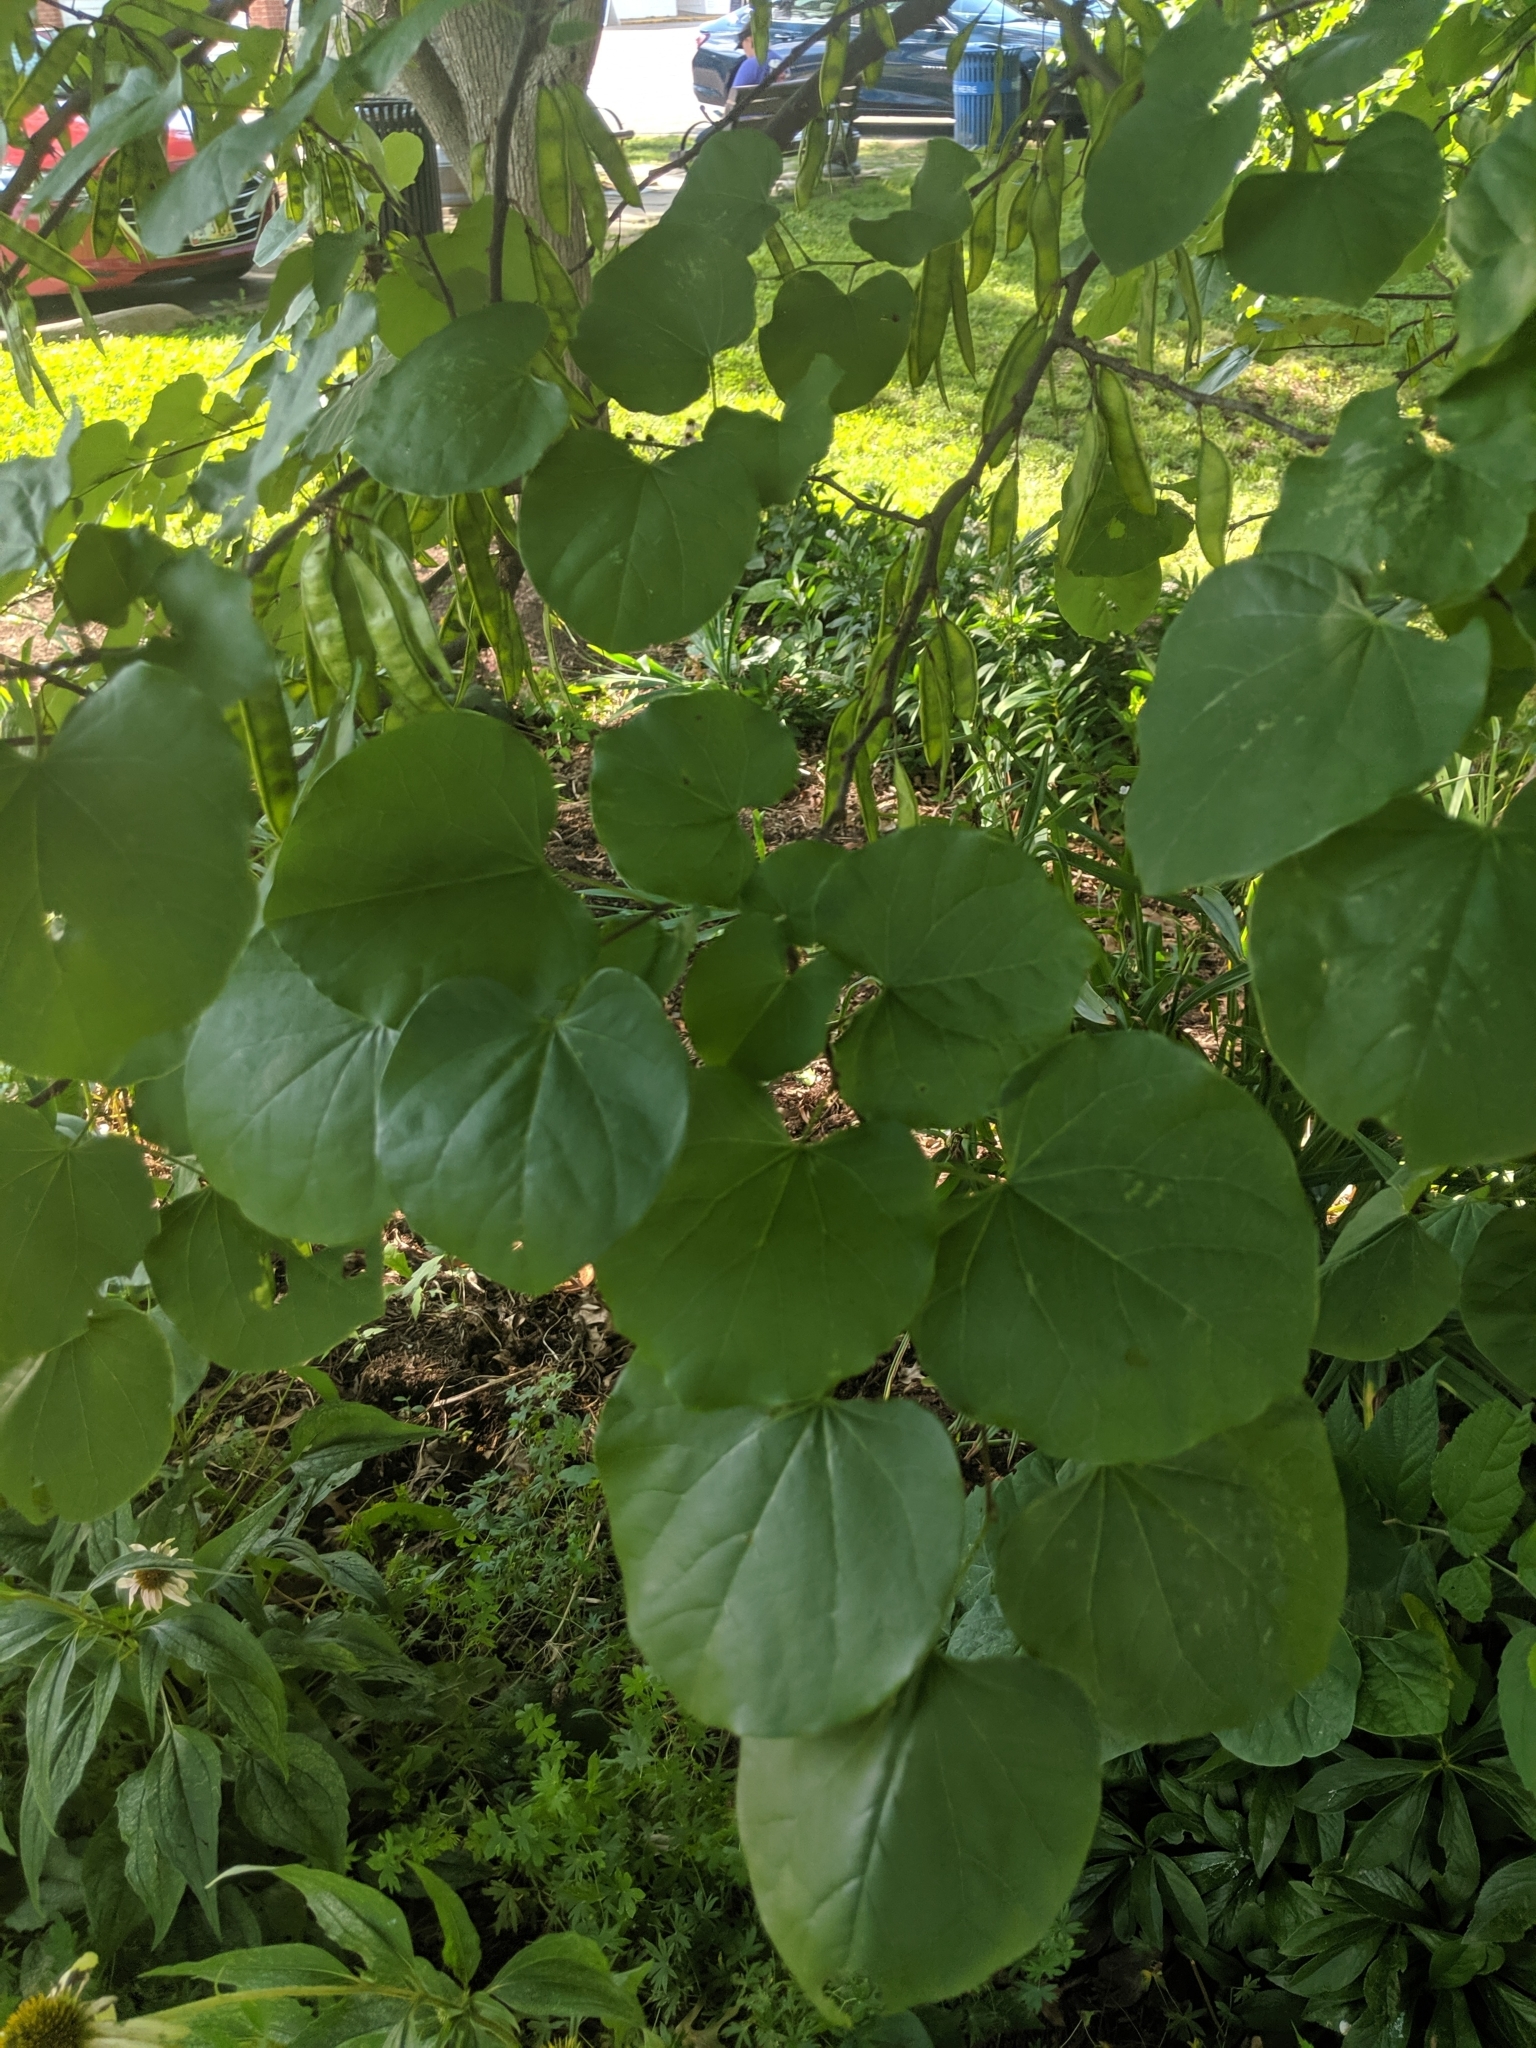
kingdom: Plantae
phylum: Tracheophyta
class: Magnoliopsida
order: Fabales
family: Fabaceae
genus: Cercis
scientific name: Cercis canadensis
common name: Eastern redbud
